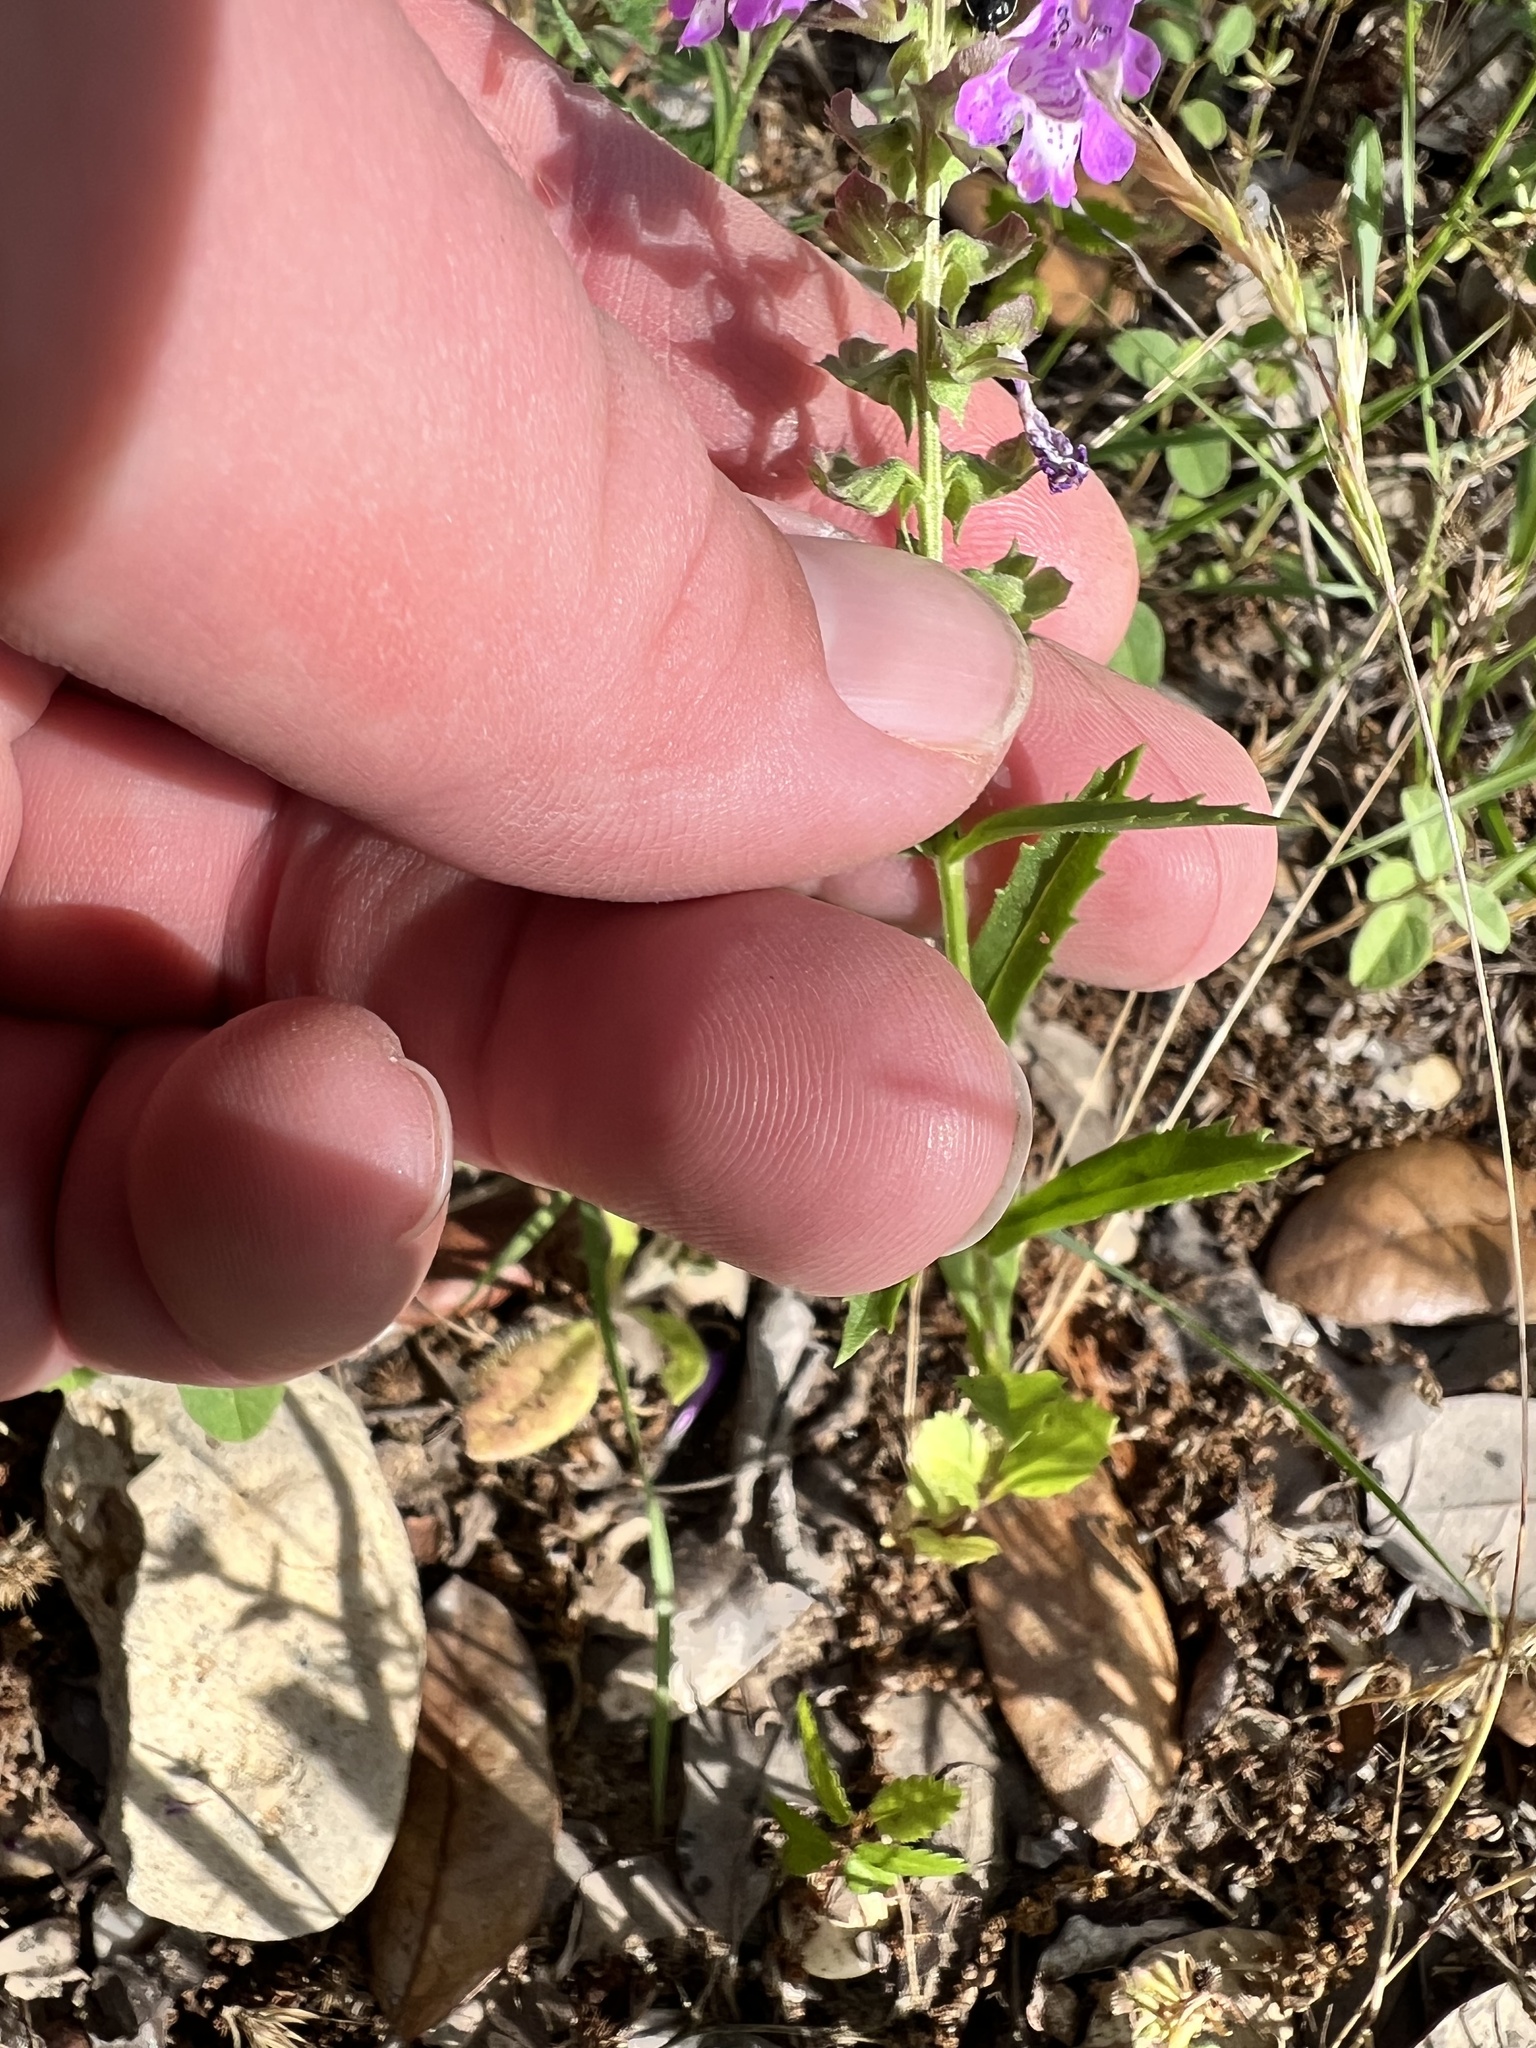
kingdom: Plantae
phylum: Tracheophyta
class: Magnoliopsida
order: Lamiales
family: Lamiaceae
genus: Warnockia
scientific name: Warnockia scutellarioides
